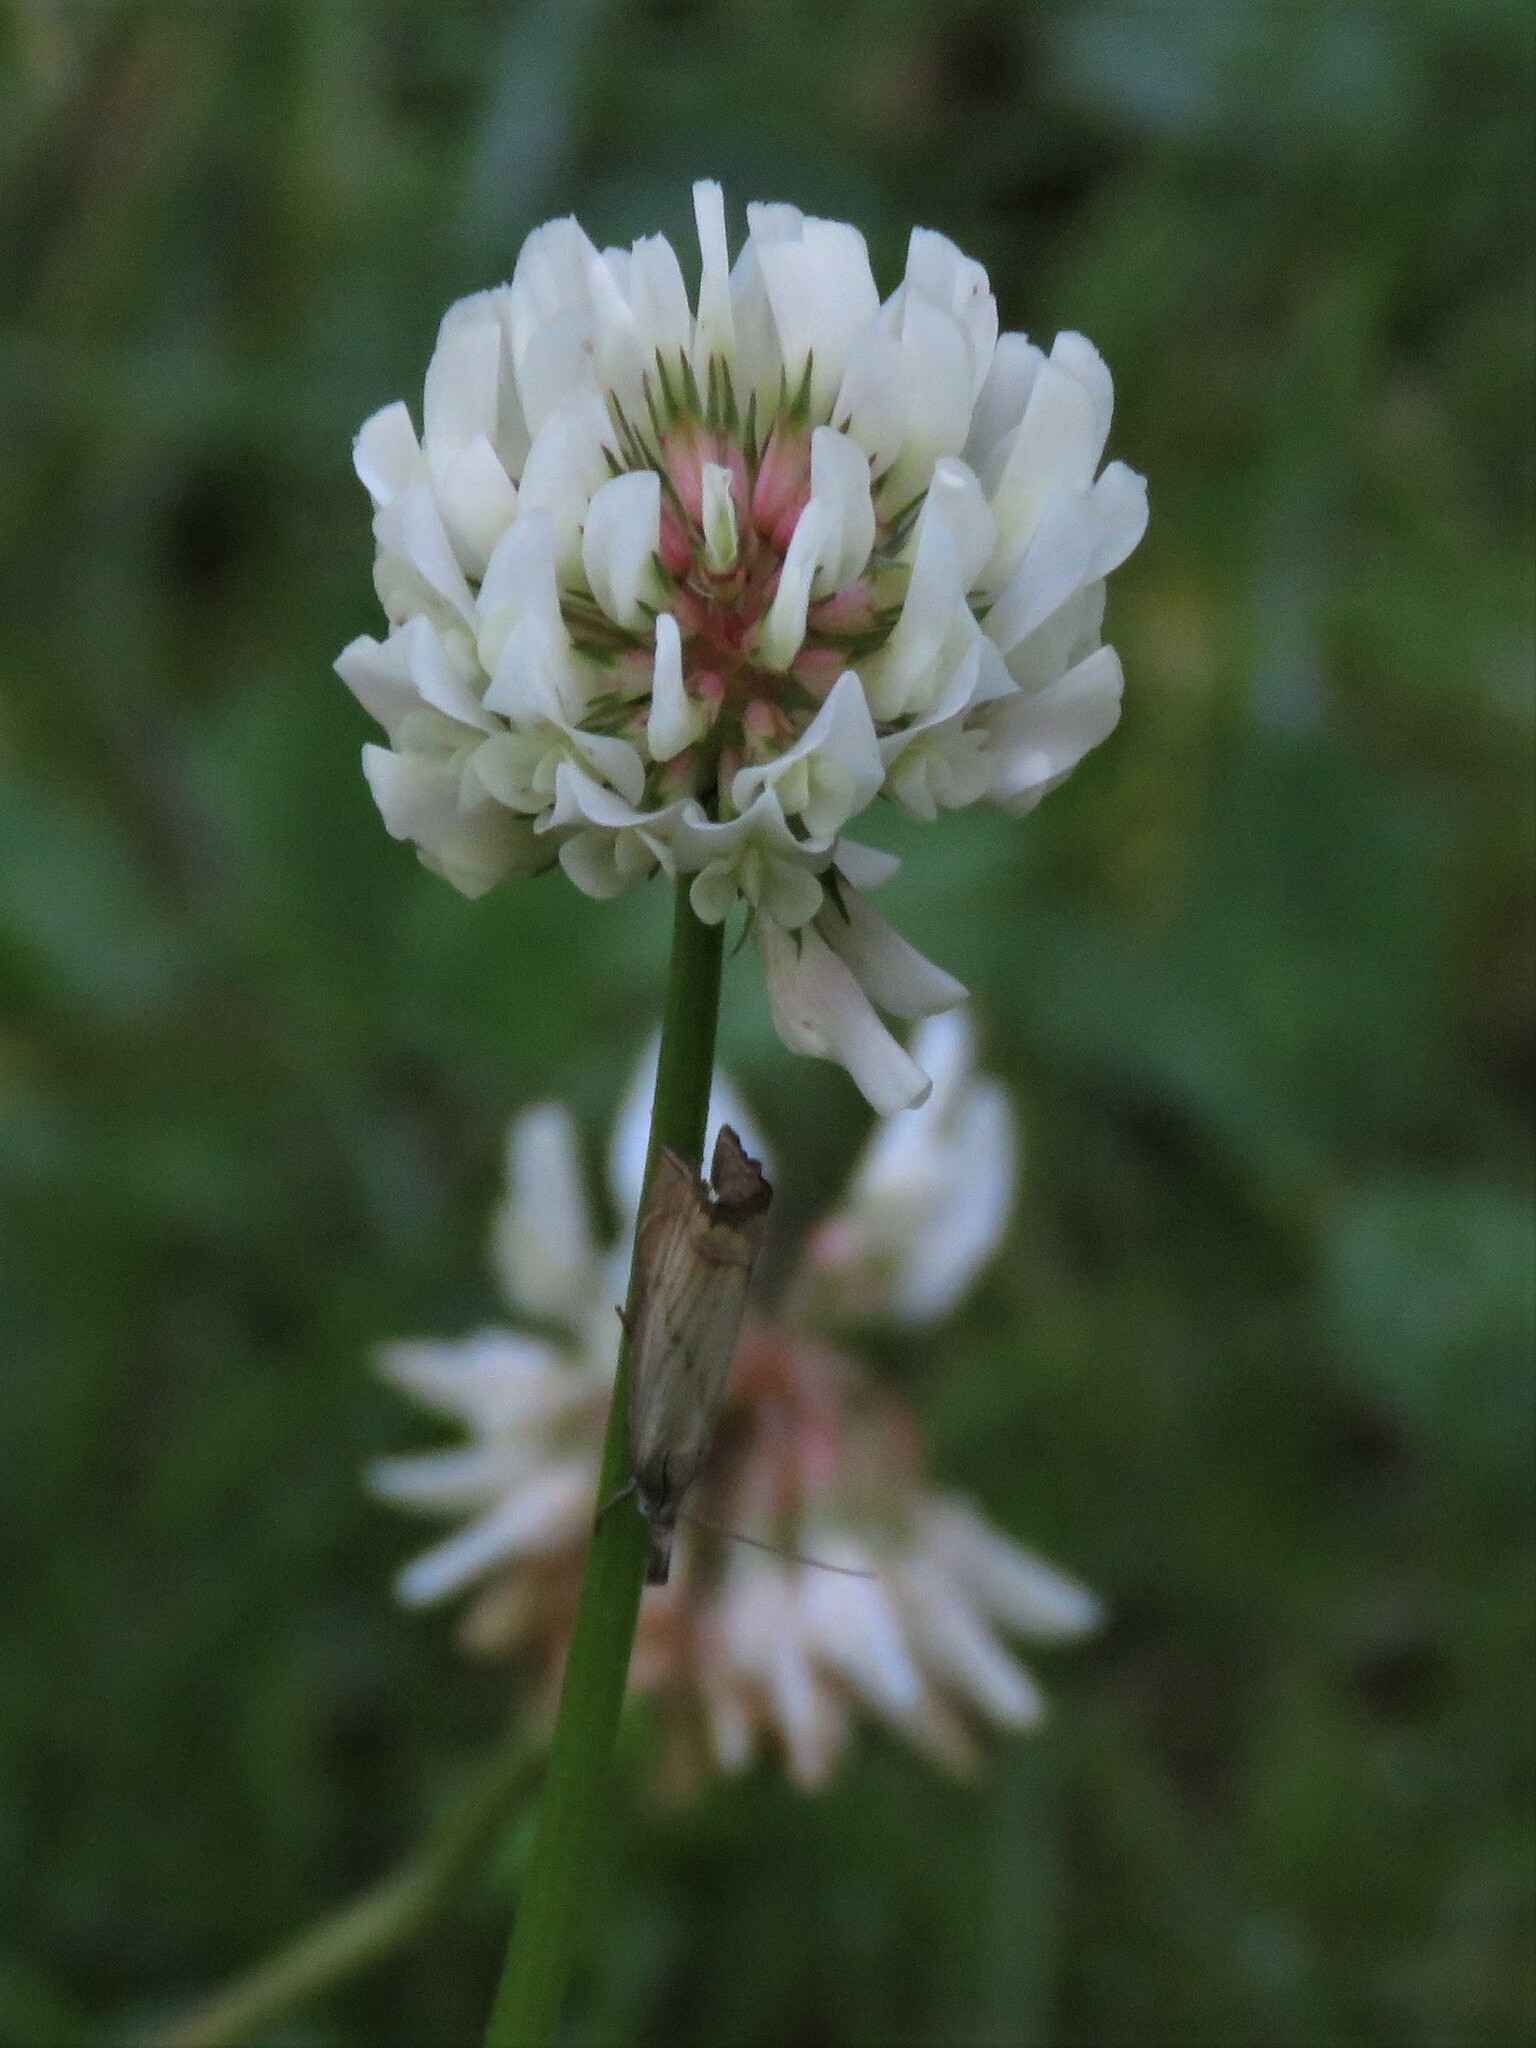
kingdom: Animalia
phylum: Arthropoda
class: Insecta
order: Lepidoptera
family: Crambidae
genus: Chrysoteuchia
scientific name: Chrysoteuchia culmella
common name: Garden grass-veneer
